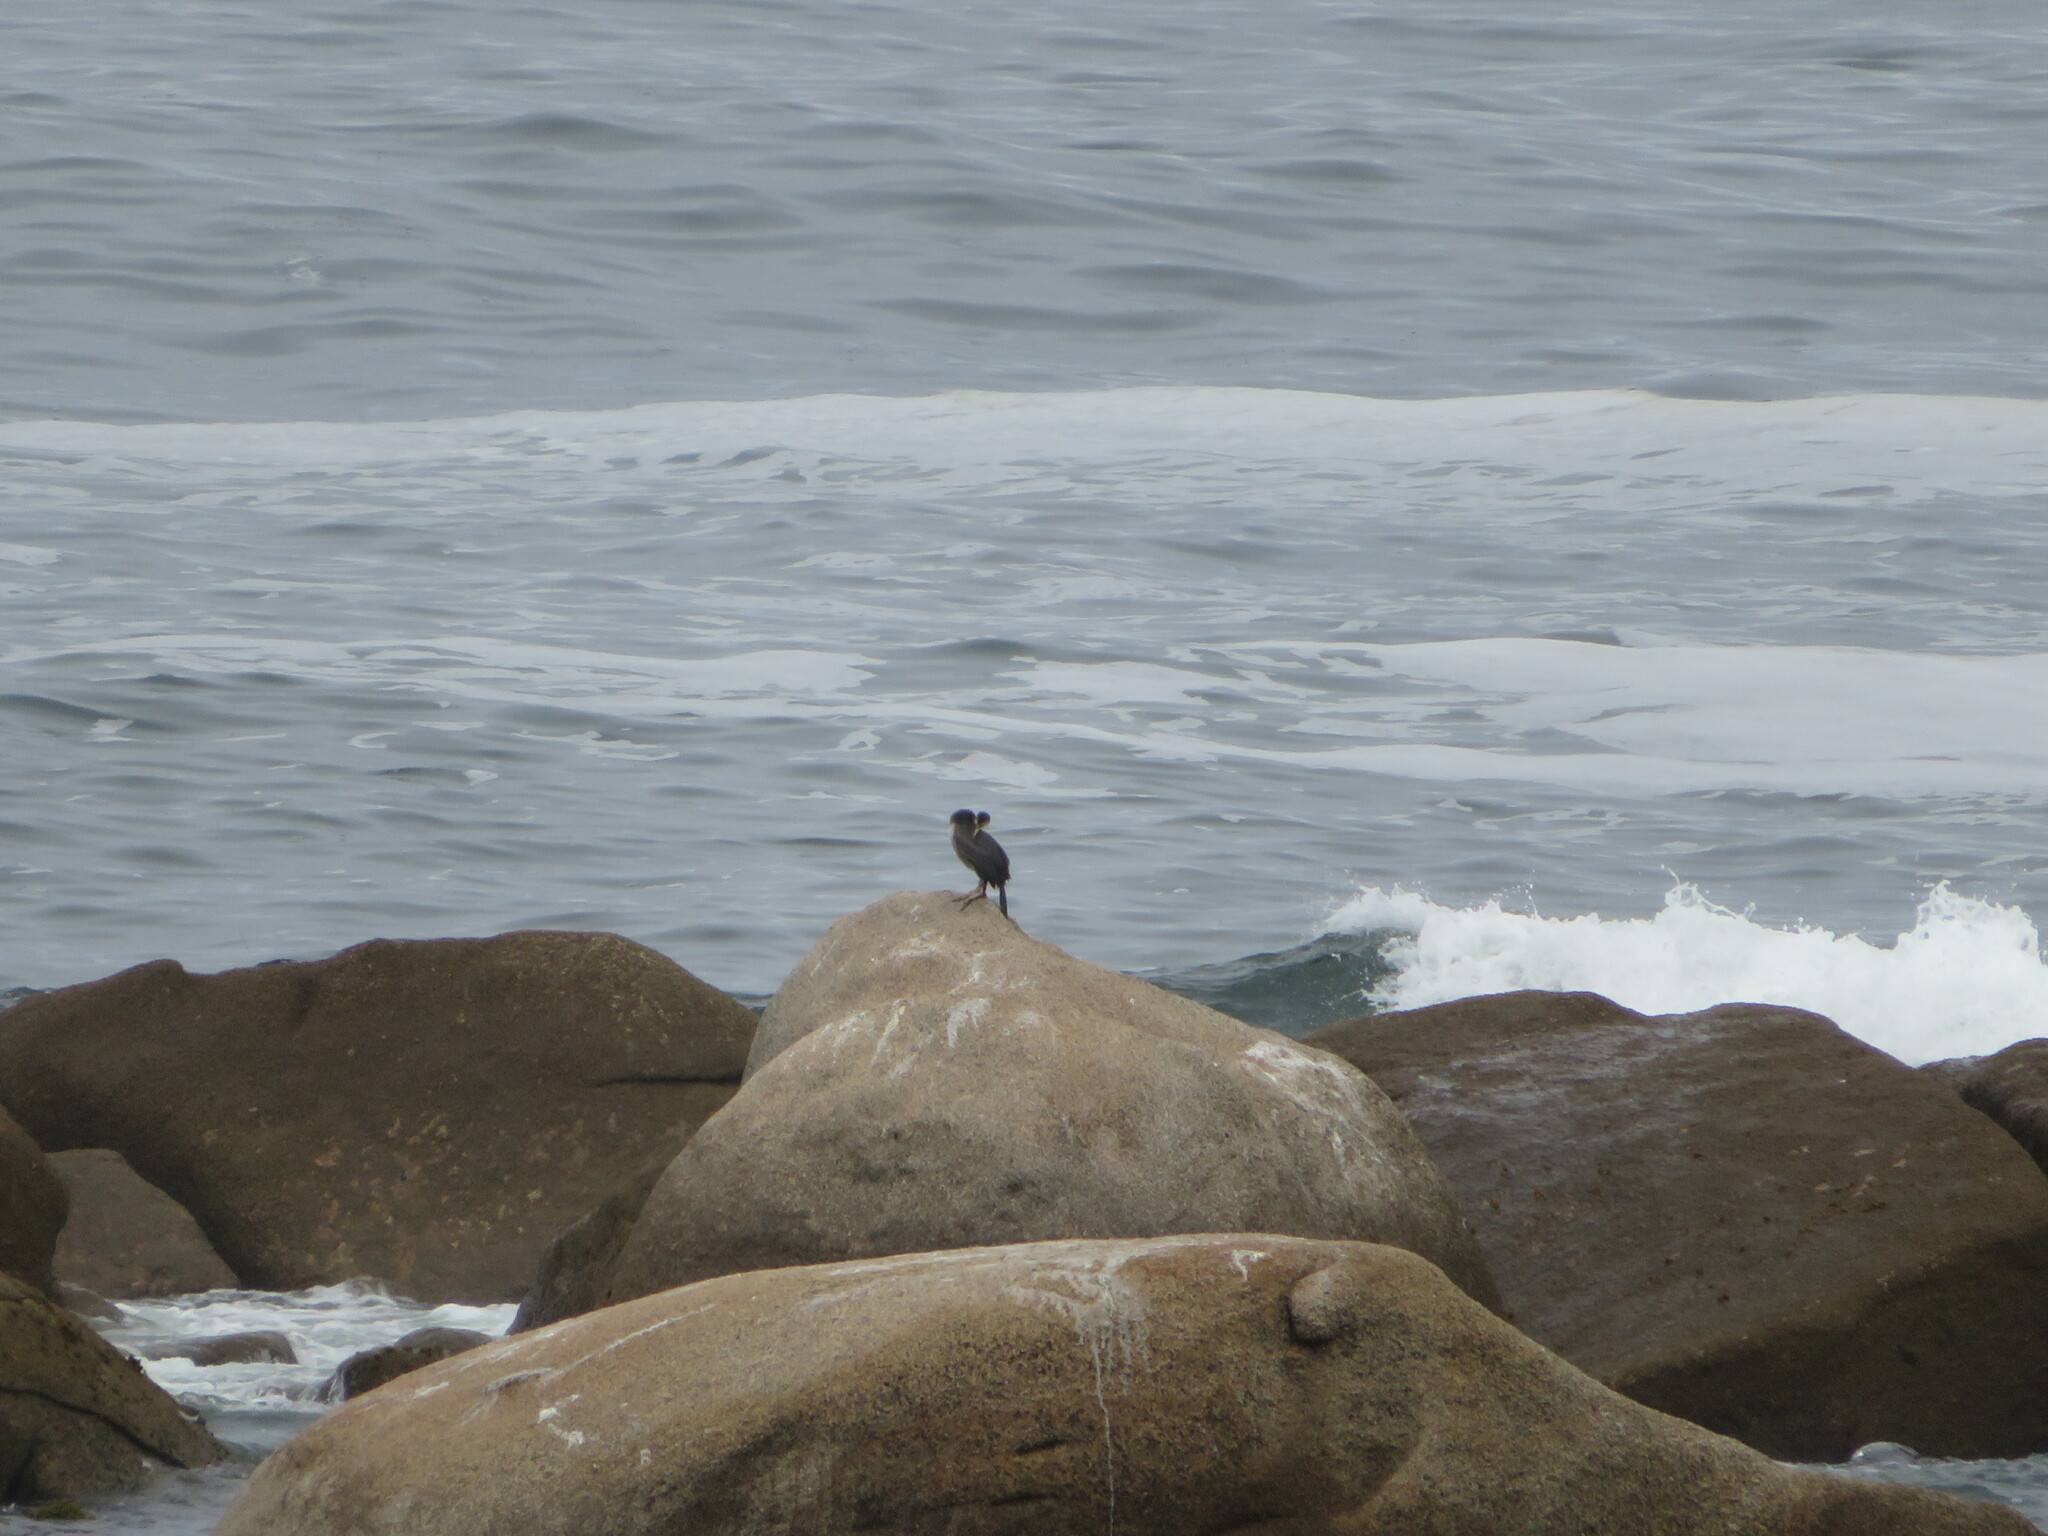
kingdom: Animalia
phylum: Chordata
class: Aves
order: Suliformes
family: Phalacrocoracidae
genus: Phalacrocorax
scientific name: Phalacrocorax aristotelis
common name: European shag
